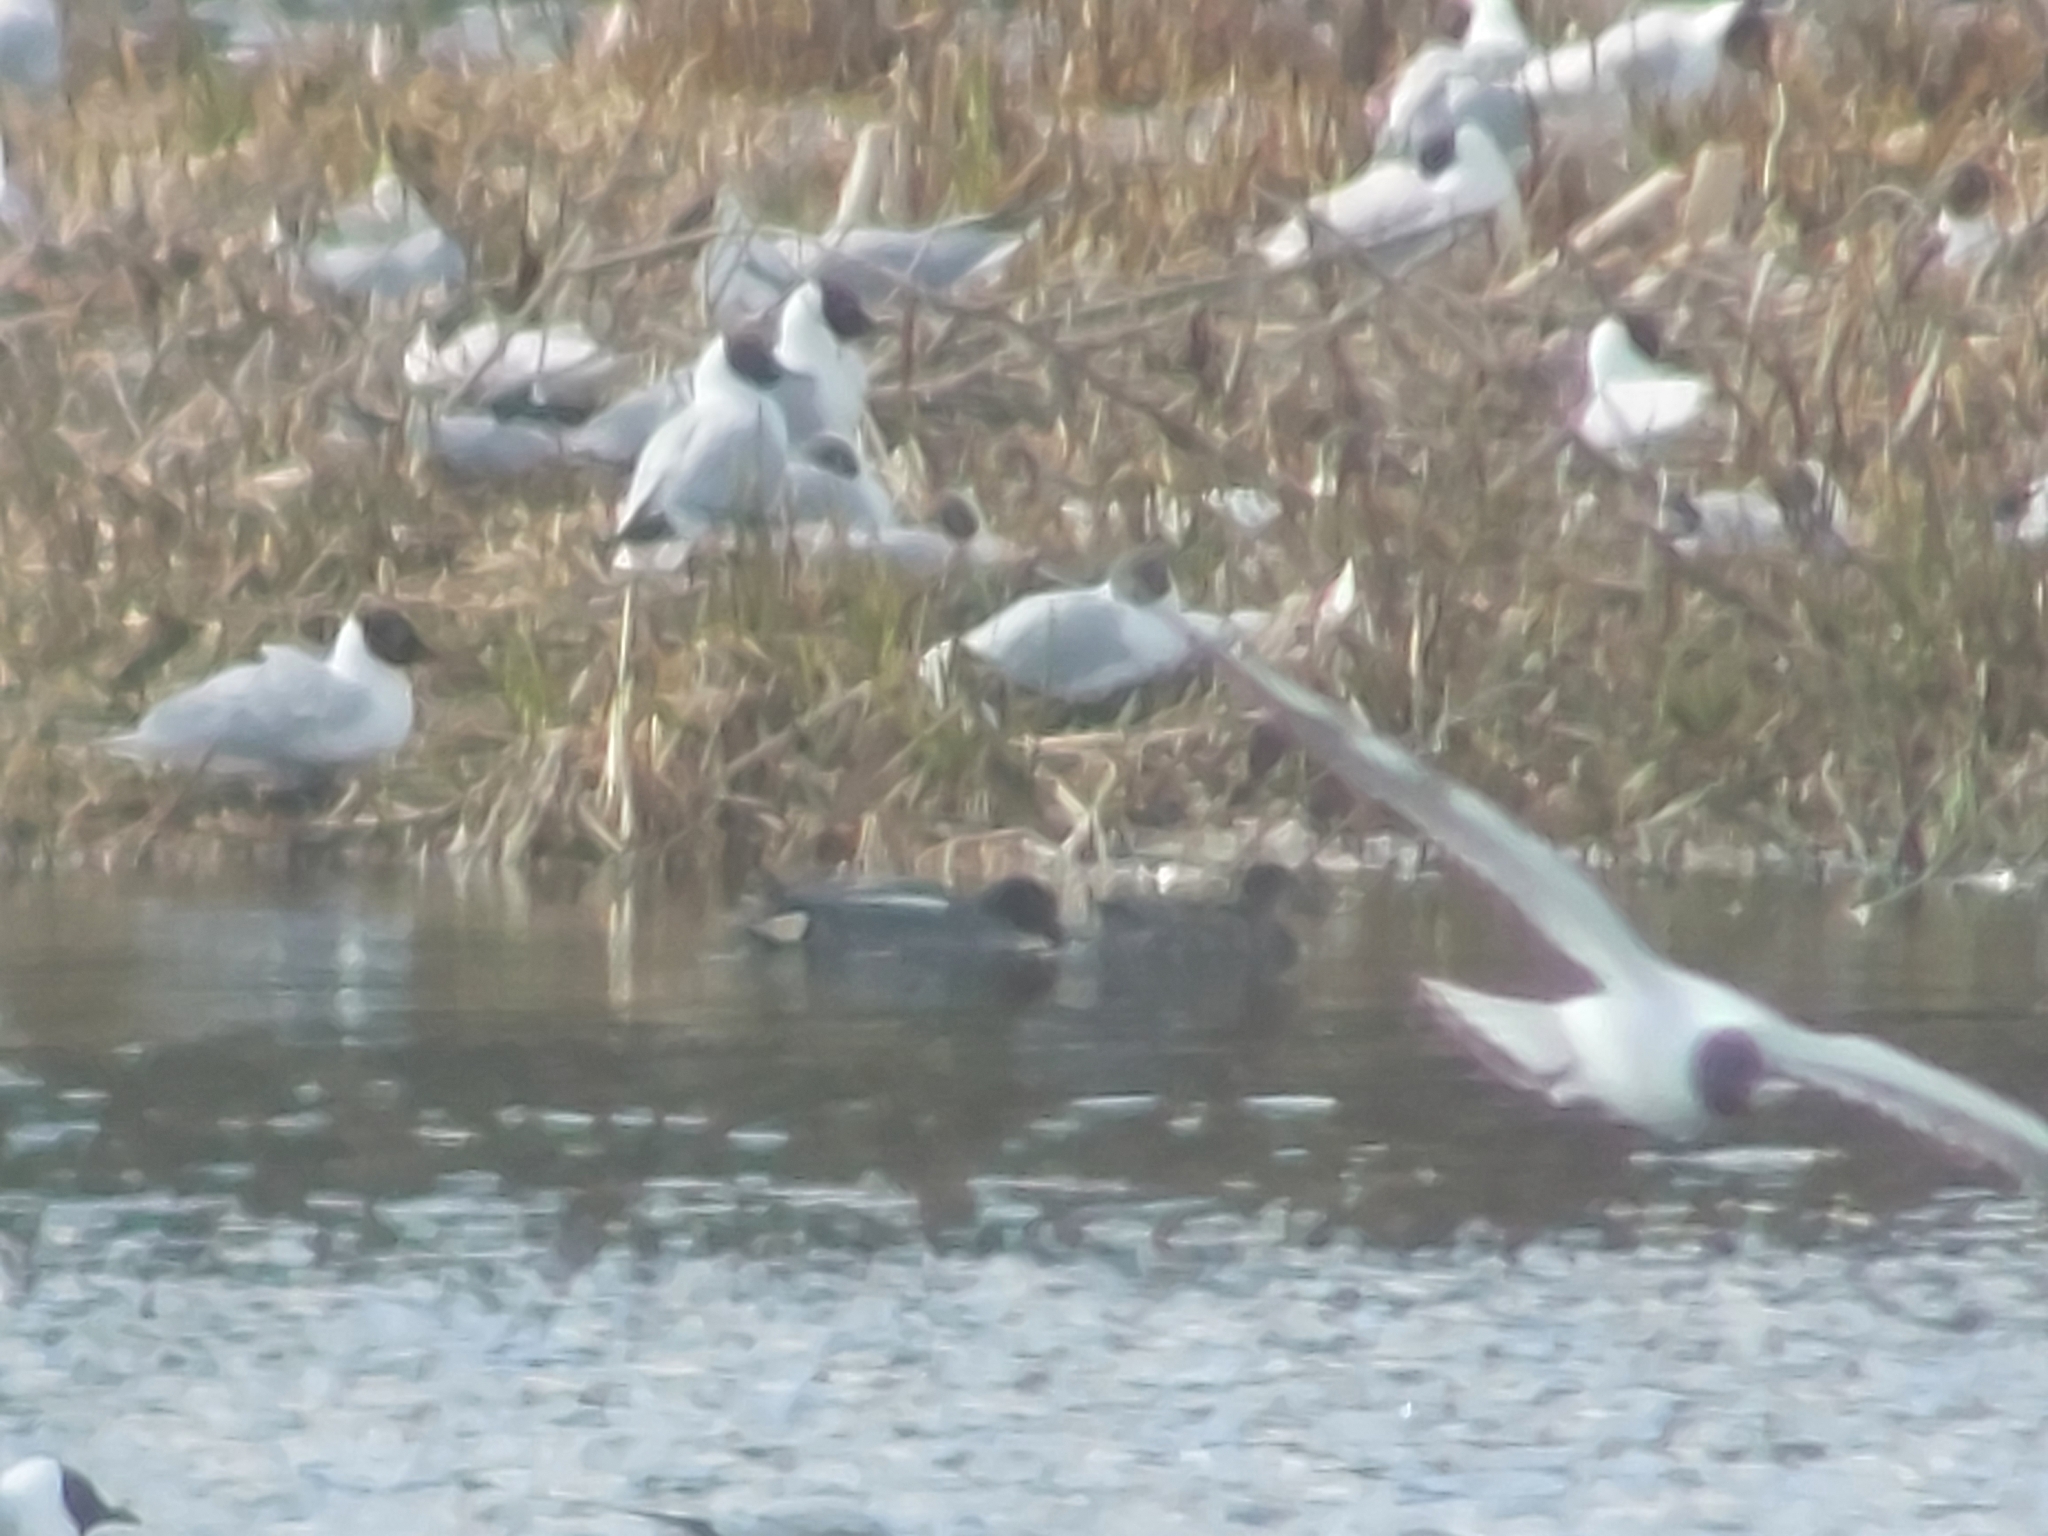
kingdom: Animalia
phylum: Chordata
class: Aves
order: Anseriformes
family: Anatidae
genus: Anas
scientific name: Anas crecca
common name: Eurasian teal
